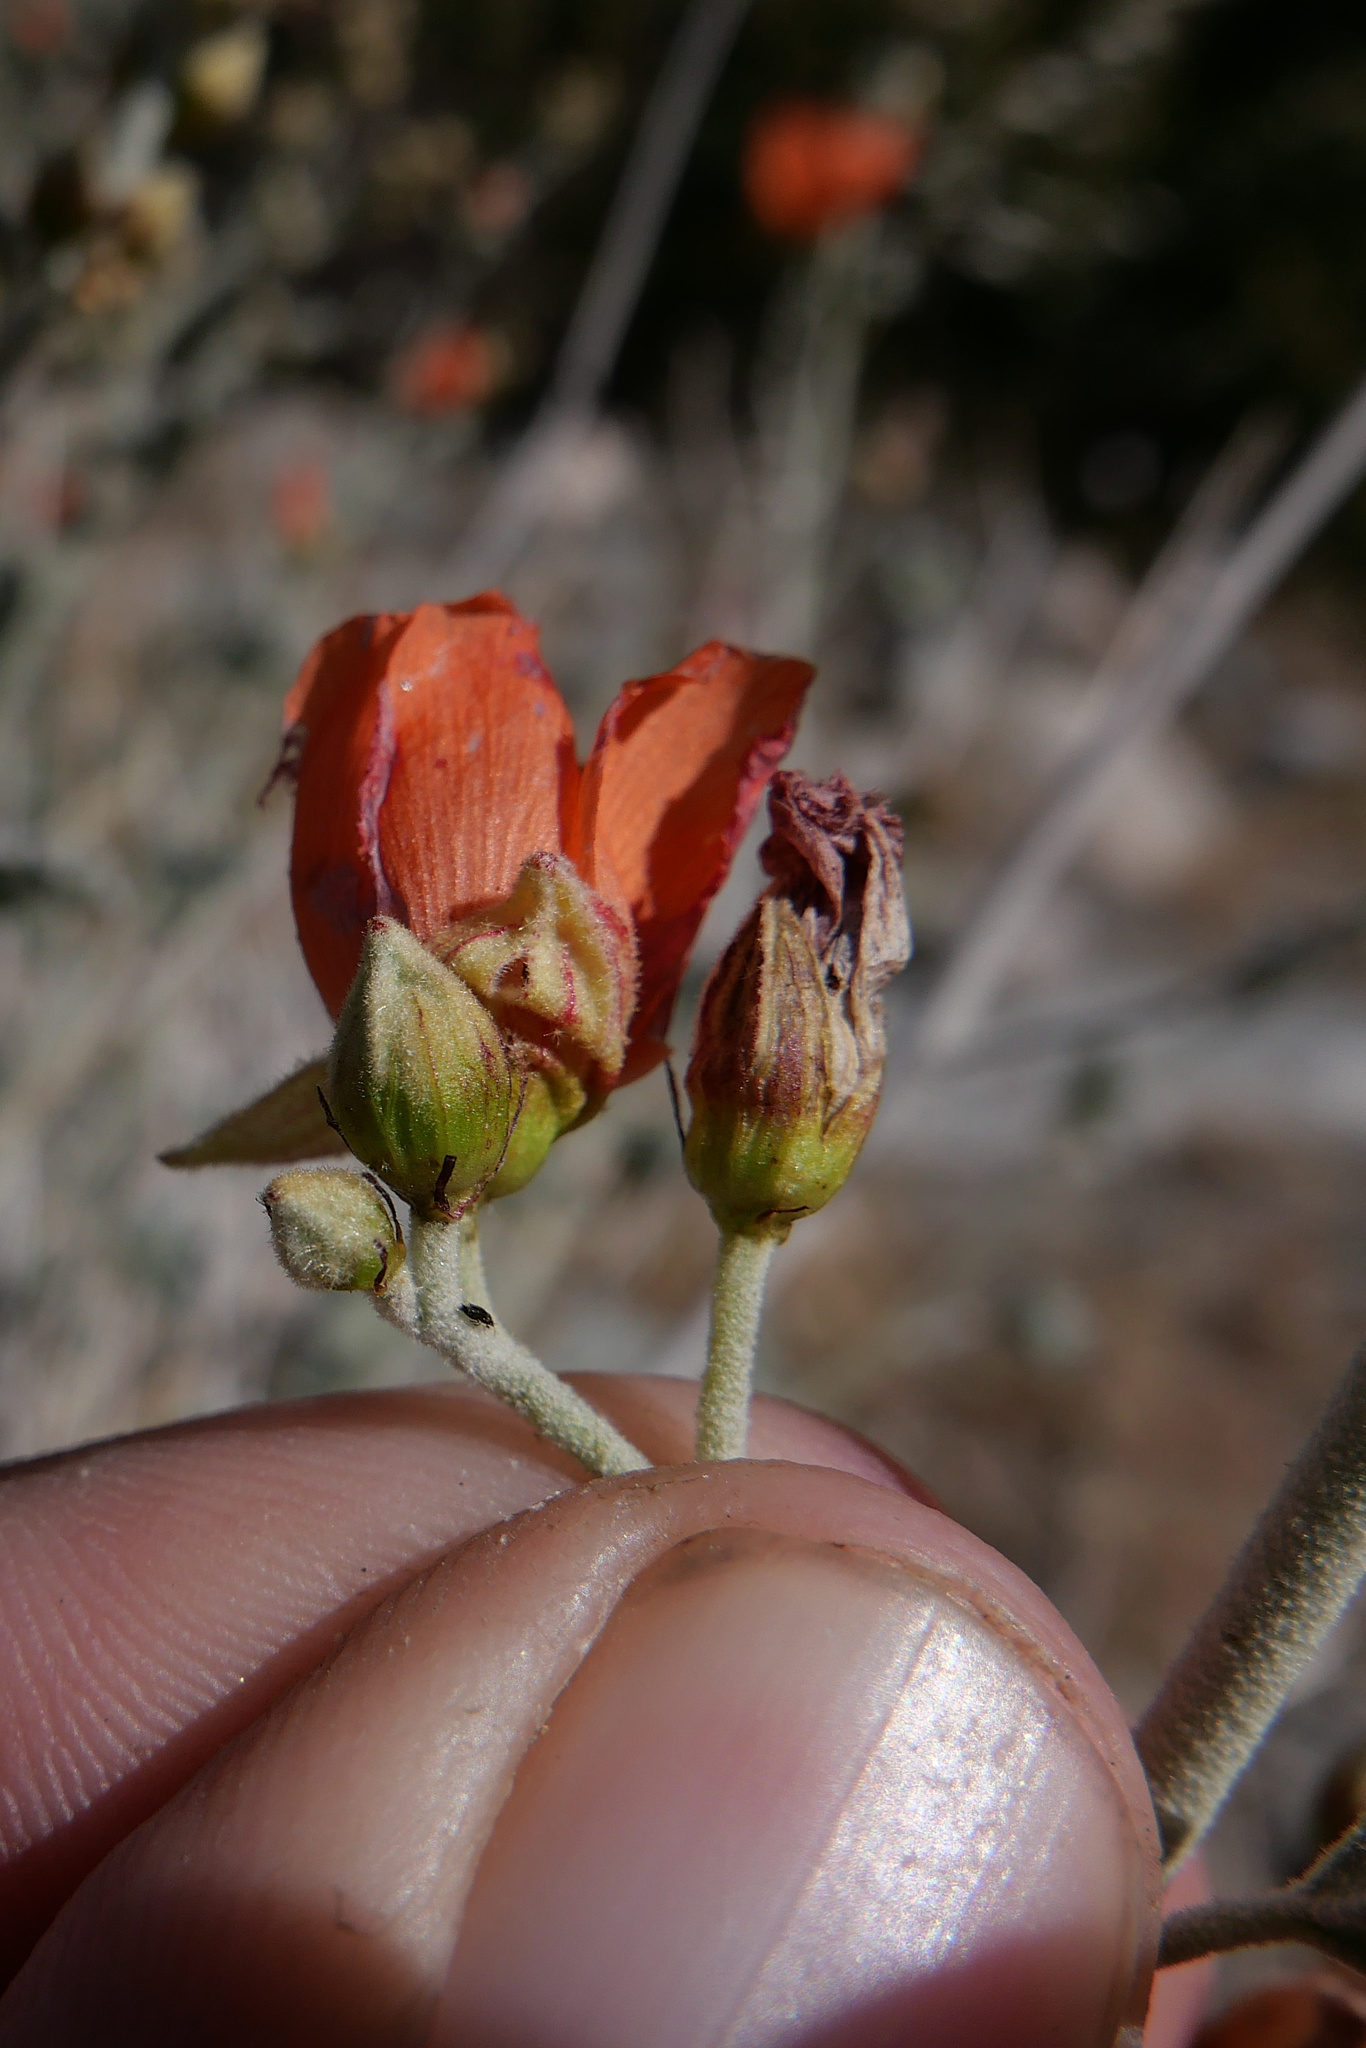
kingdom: Plantae
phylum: Tracheophyta
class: Magnoliopsida
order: Malvales
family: Malvaceae
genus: Sphaeralcea
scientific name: Sphaeralcea ambigua
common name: Apricot globe-mallow
